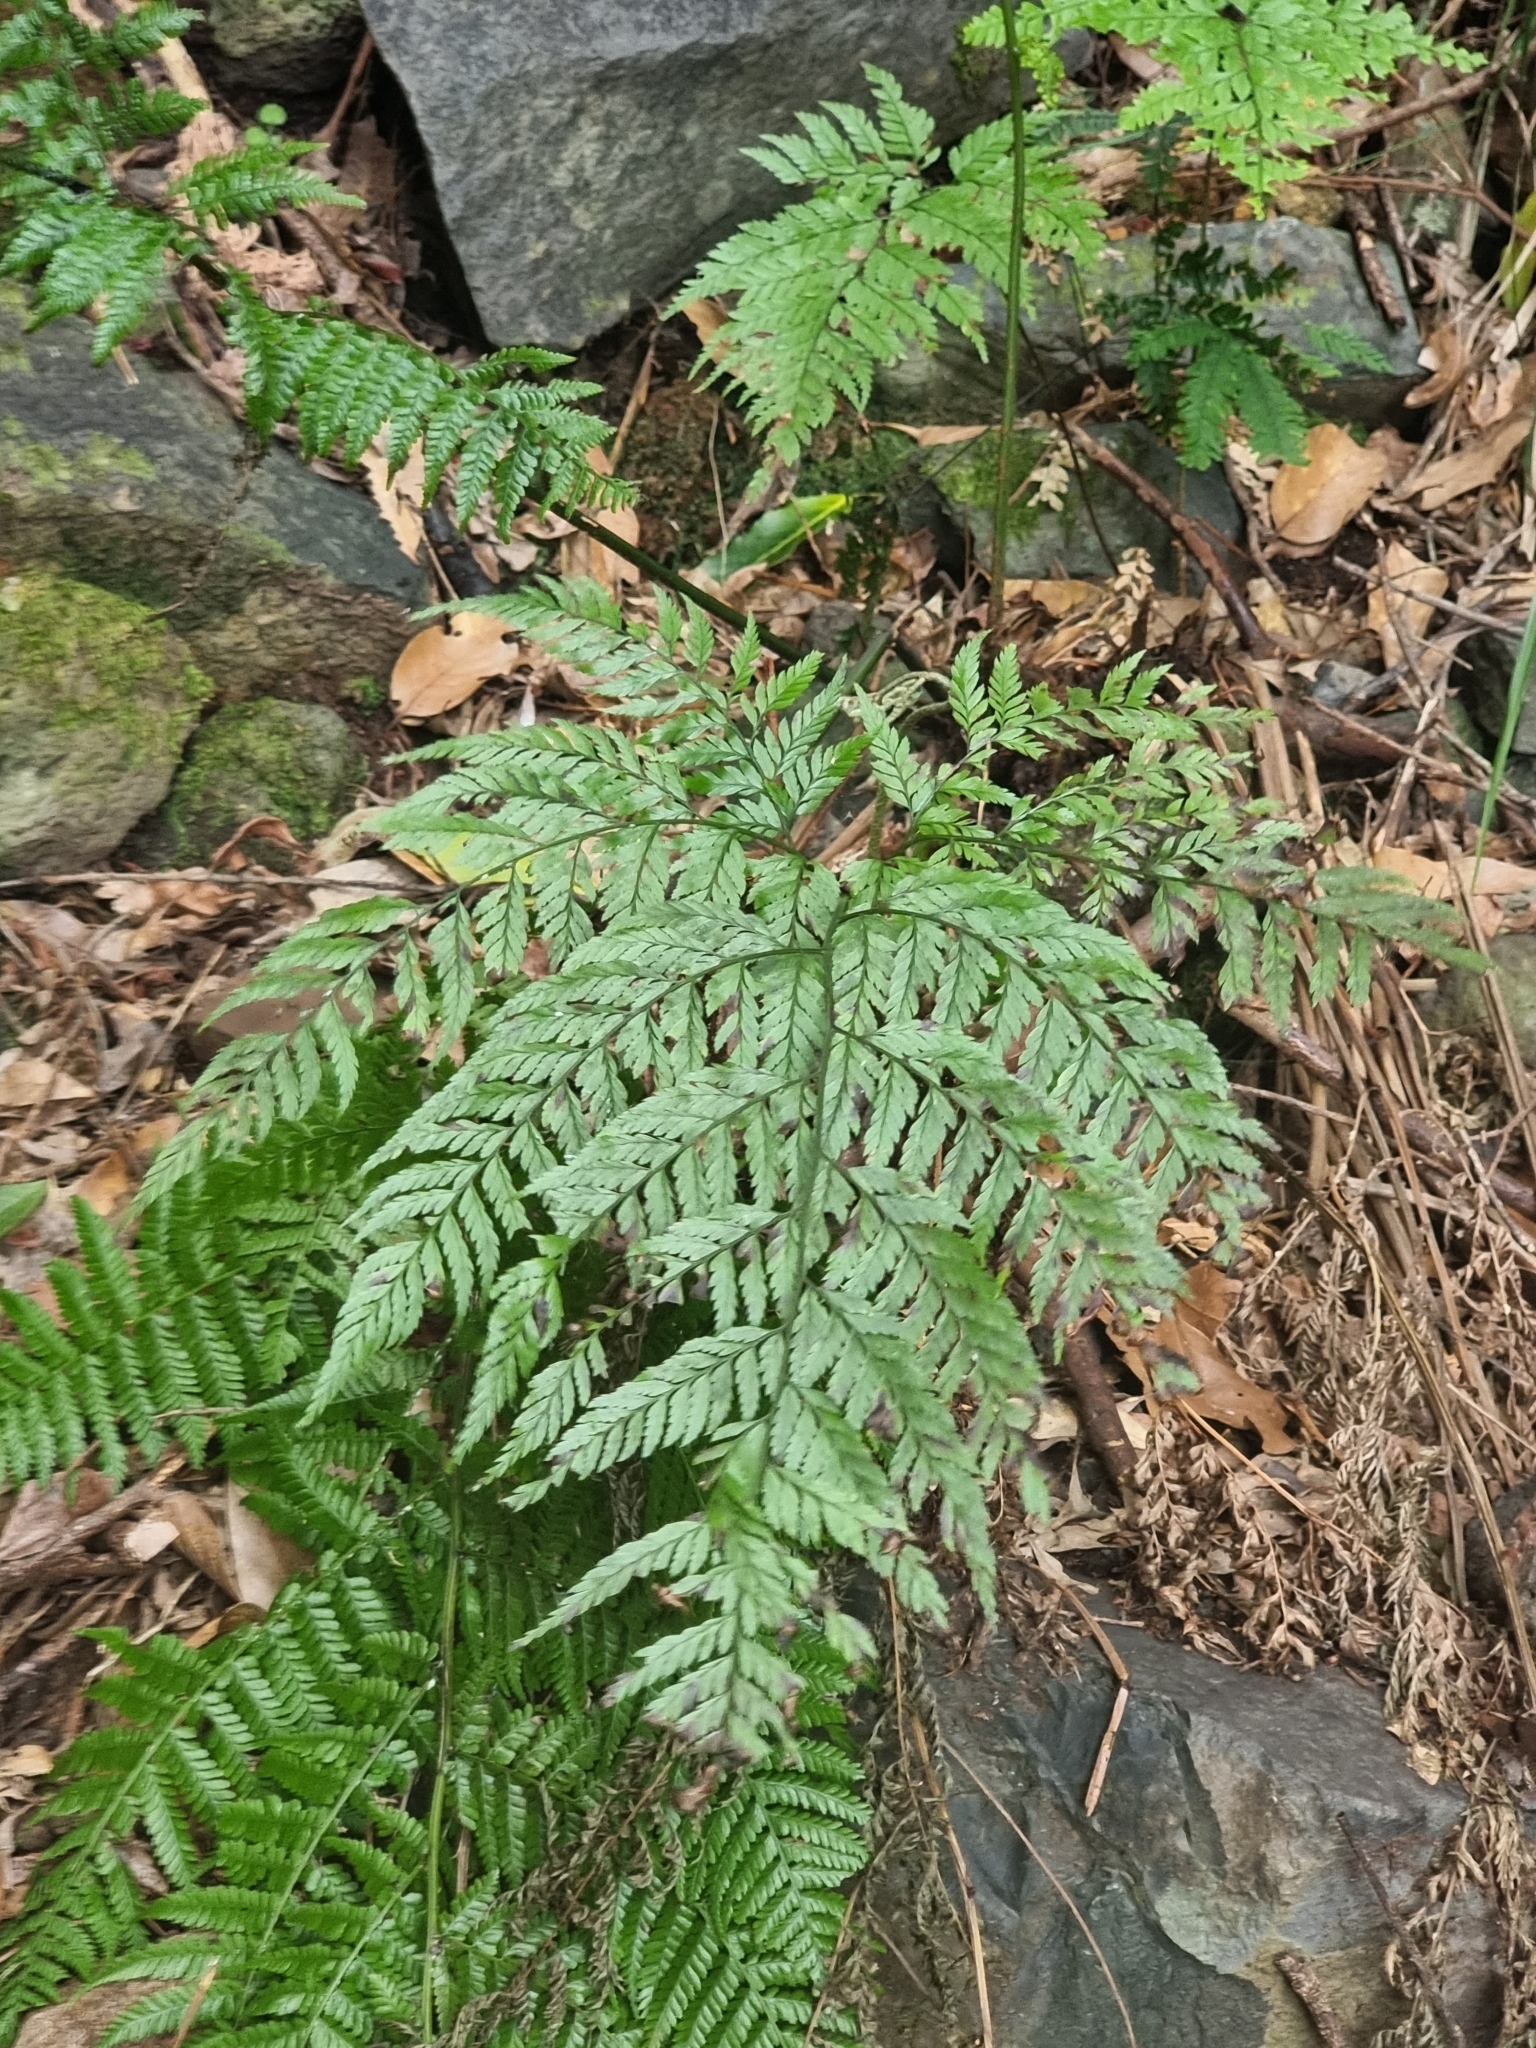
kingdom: Plantae
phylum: Tracheophyta
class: Polypodiopsida
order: Polypodiales
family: Athyriaceae
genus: Diplazium
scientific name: Diplazium caudatum
